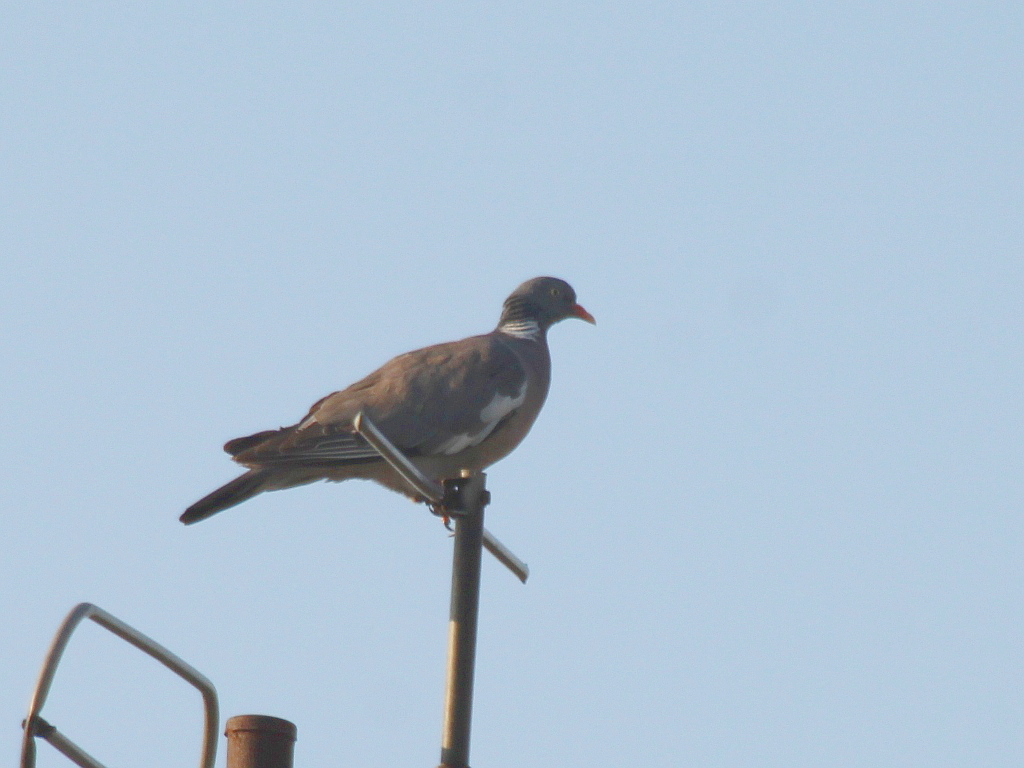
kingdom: Animalia
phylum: Chordata
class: Aves
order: Columbiformes
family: Columbidae
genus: Columba
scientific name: Columba palumbus
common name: Common wood pigeon
